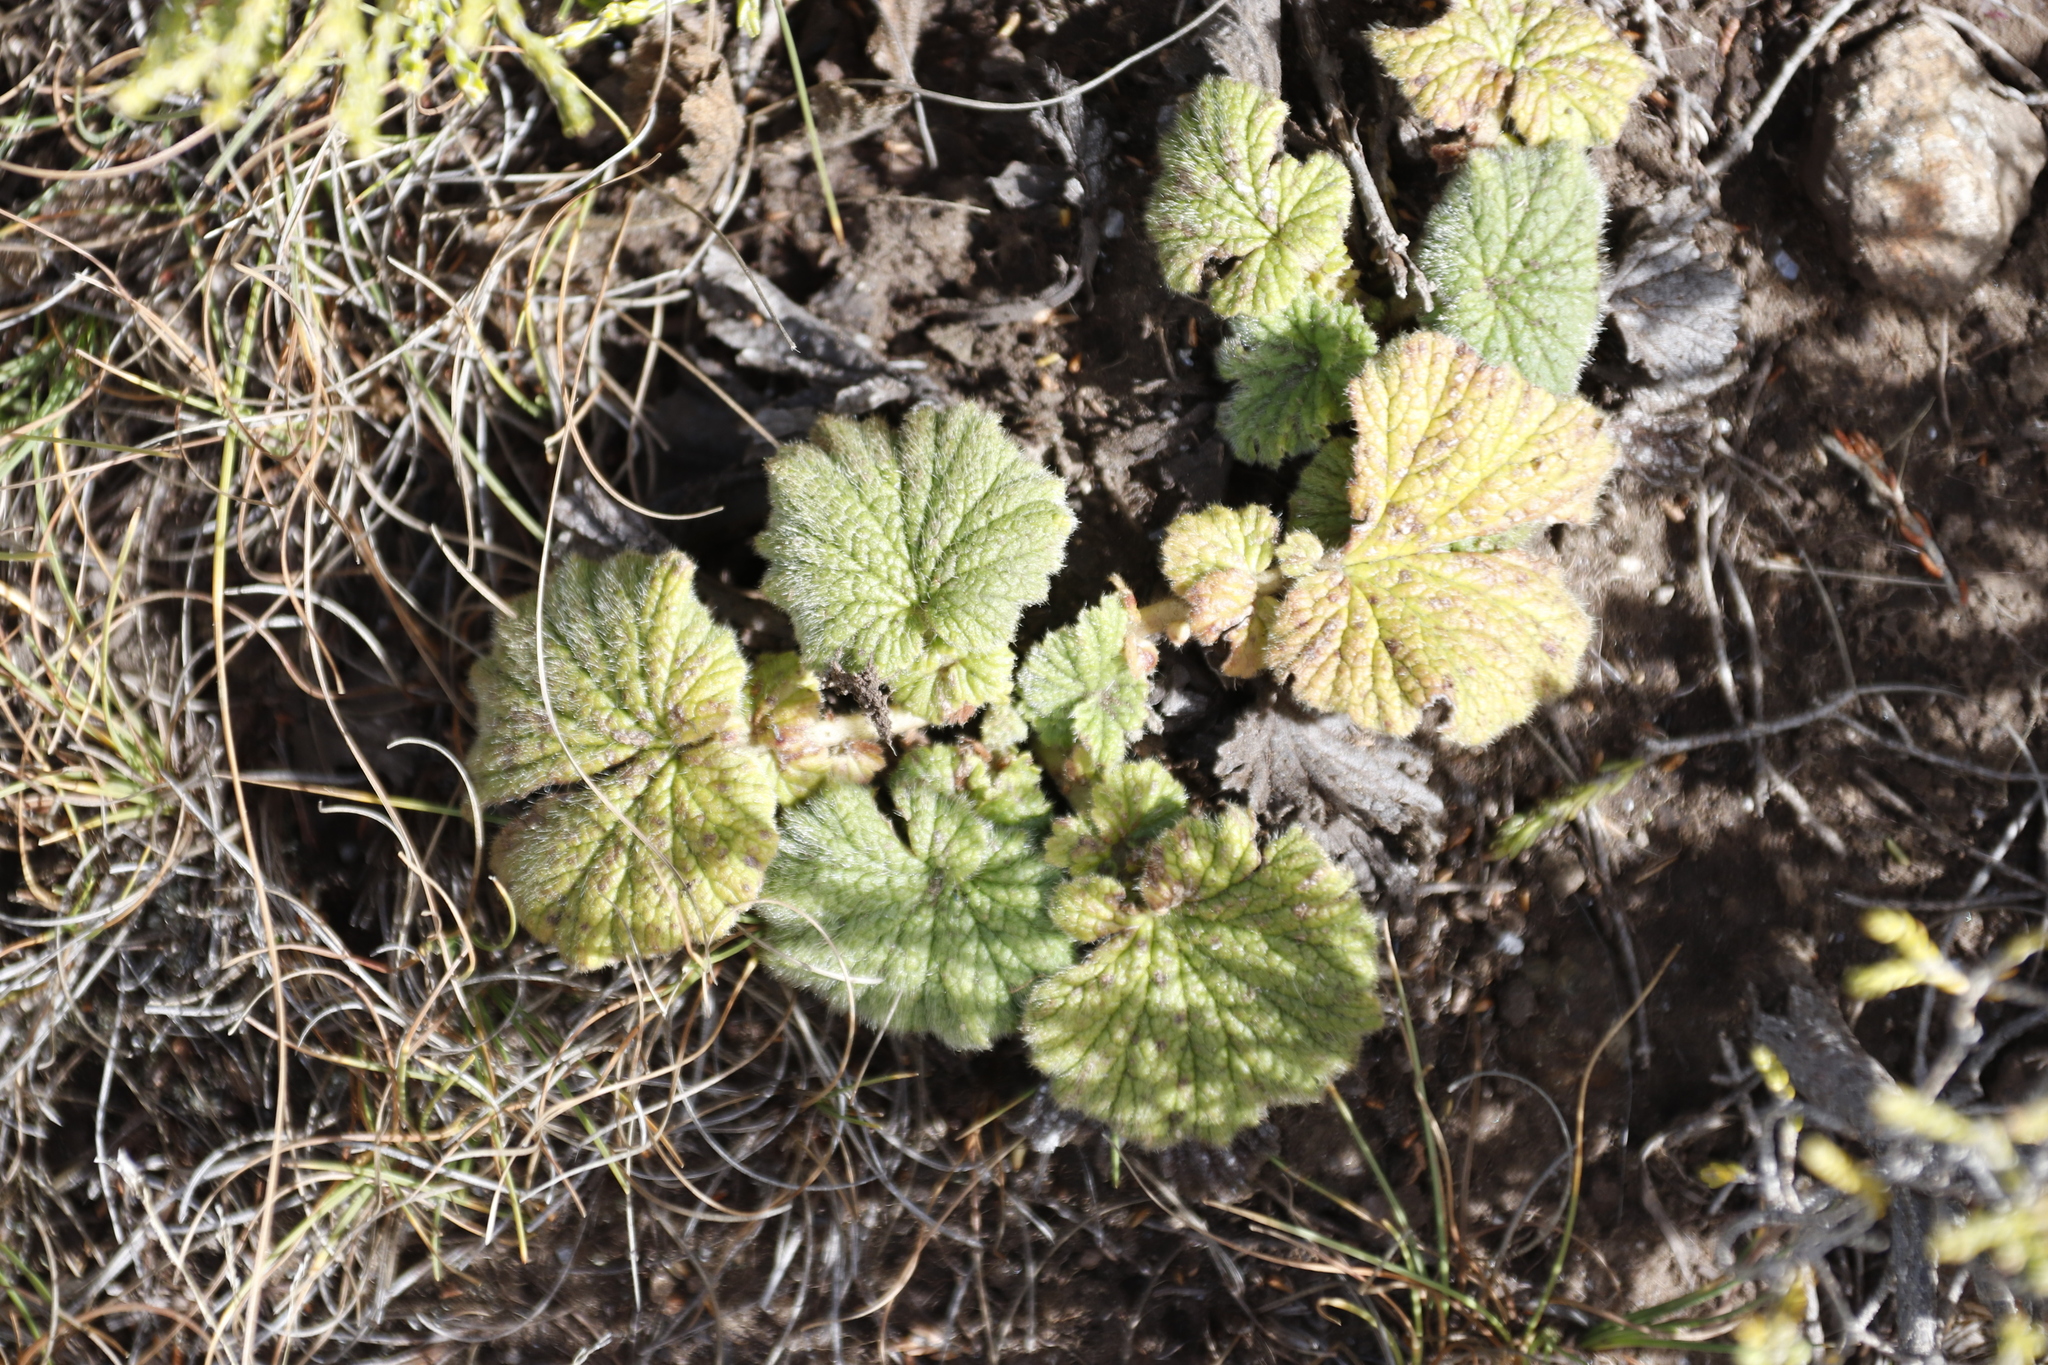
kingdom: Plantae
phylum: Tracheophyta
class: Magnoliopsida
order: Rosales
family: Rosaceae
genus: Geum
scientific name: Geum capense
